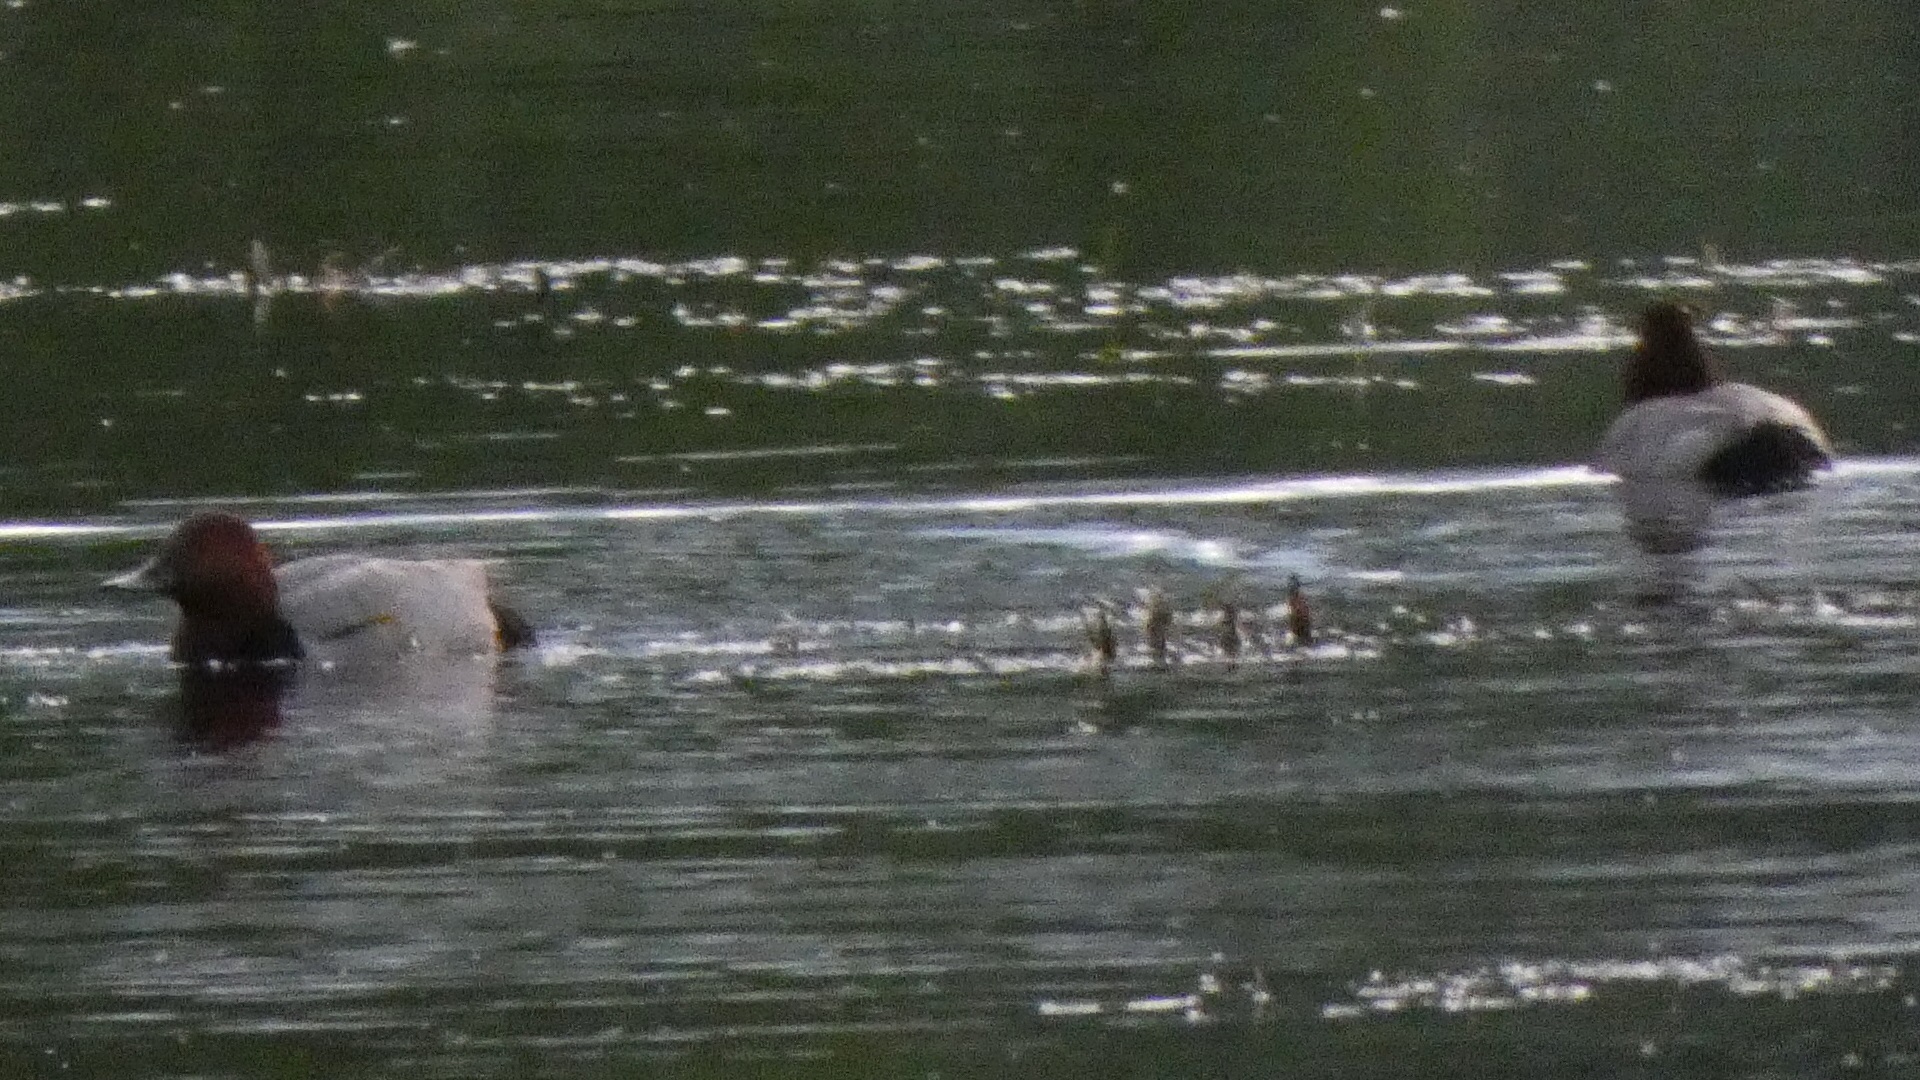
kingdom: Animalia
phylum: Chordata
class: Aves
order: Anseriformes
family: Anatidae
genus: Aythya
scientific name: Aythya ferina
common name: Common pochard
